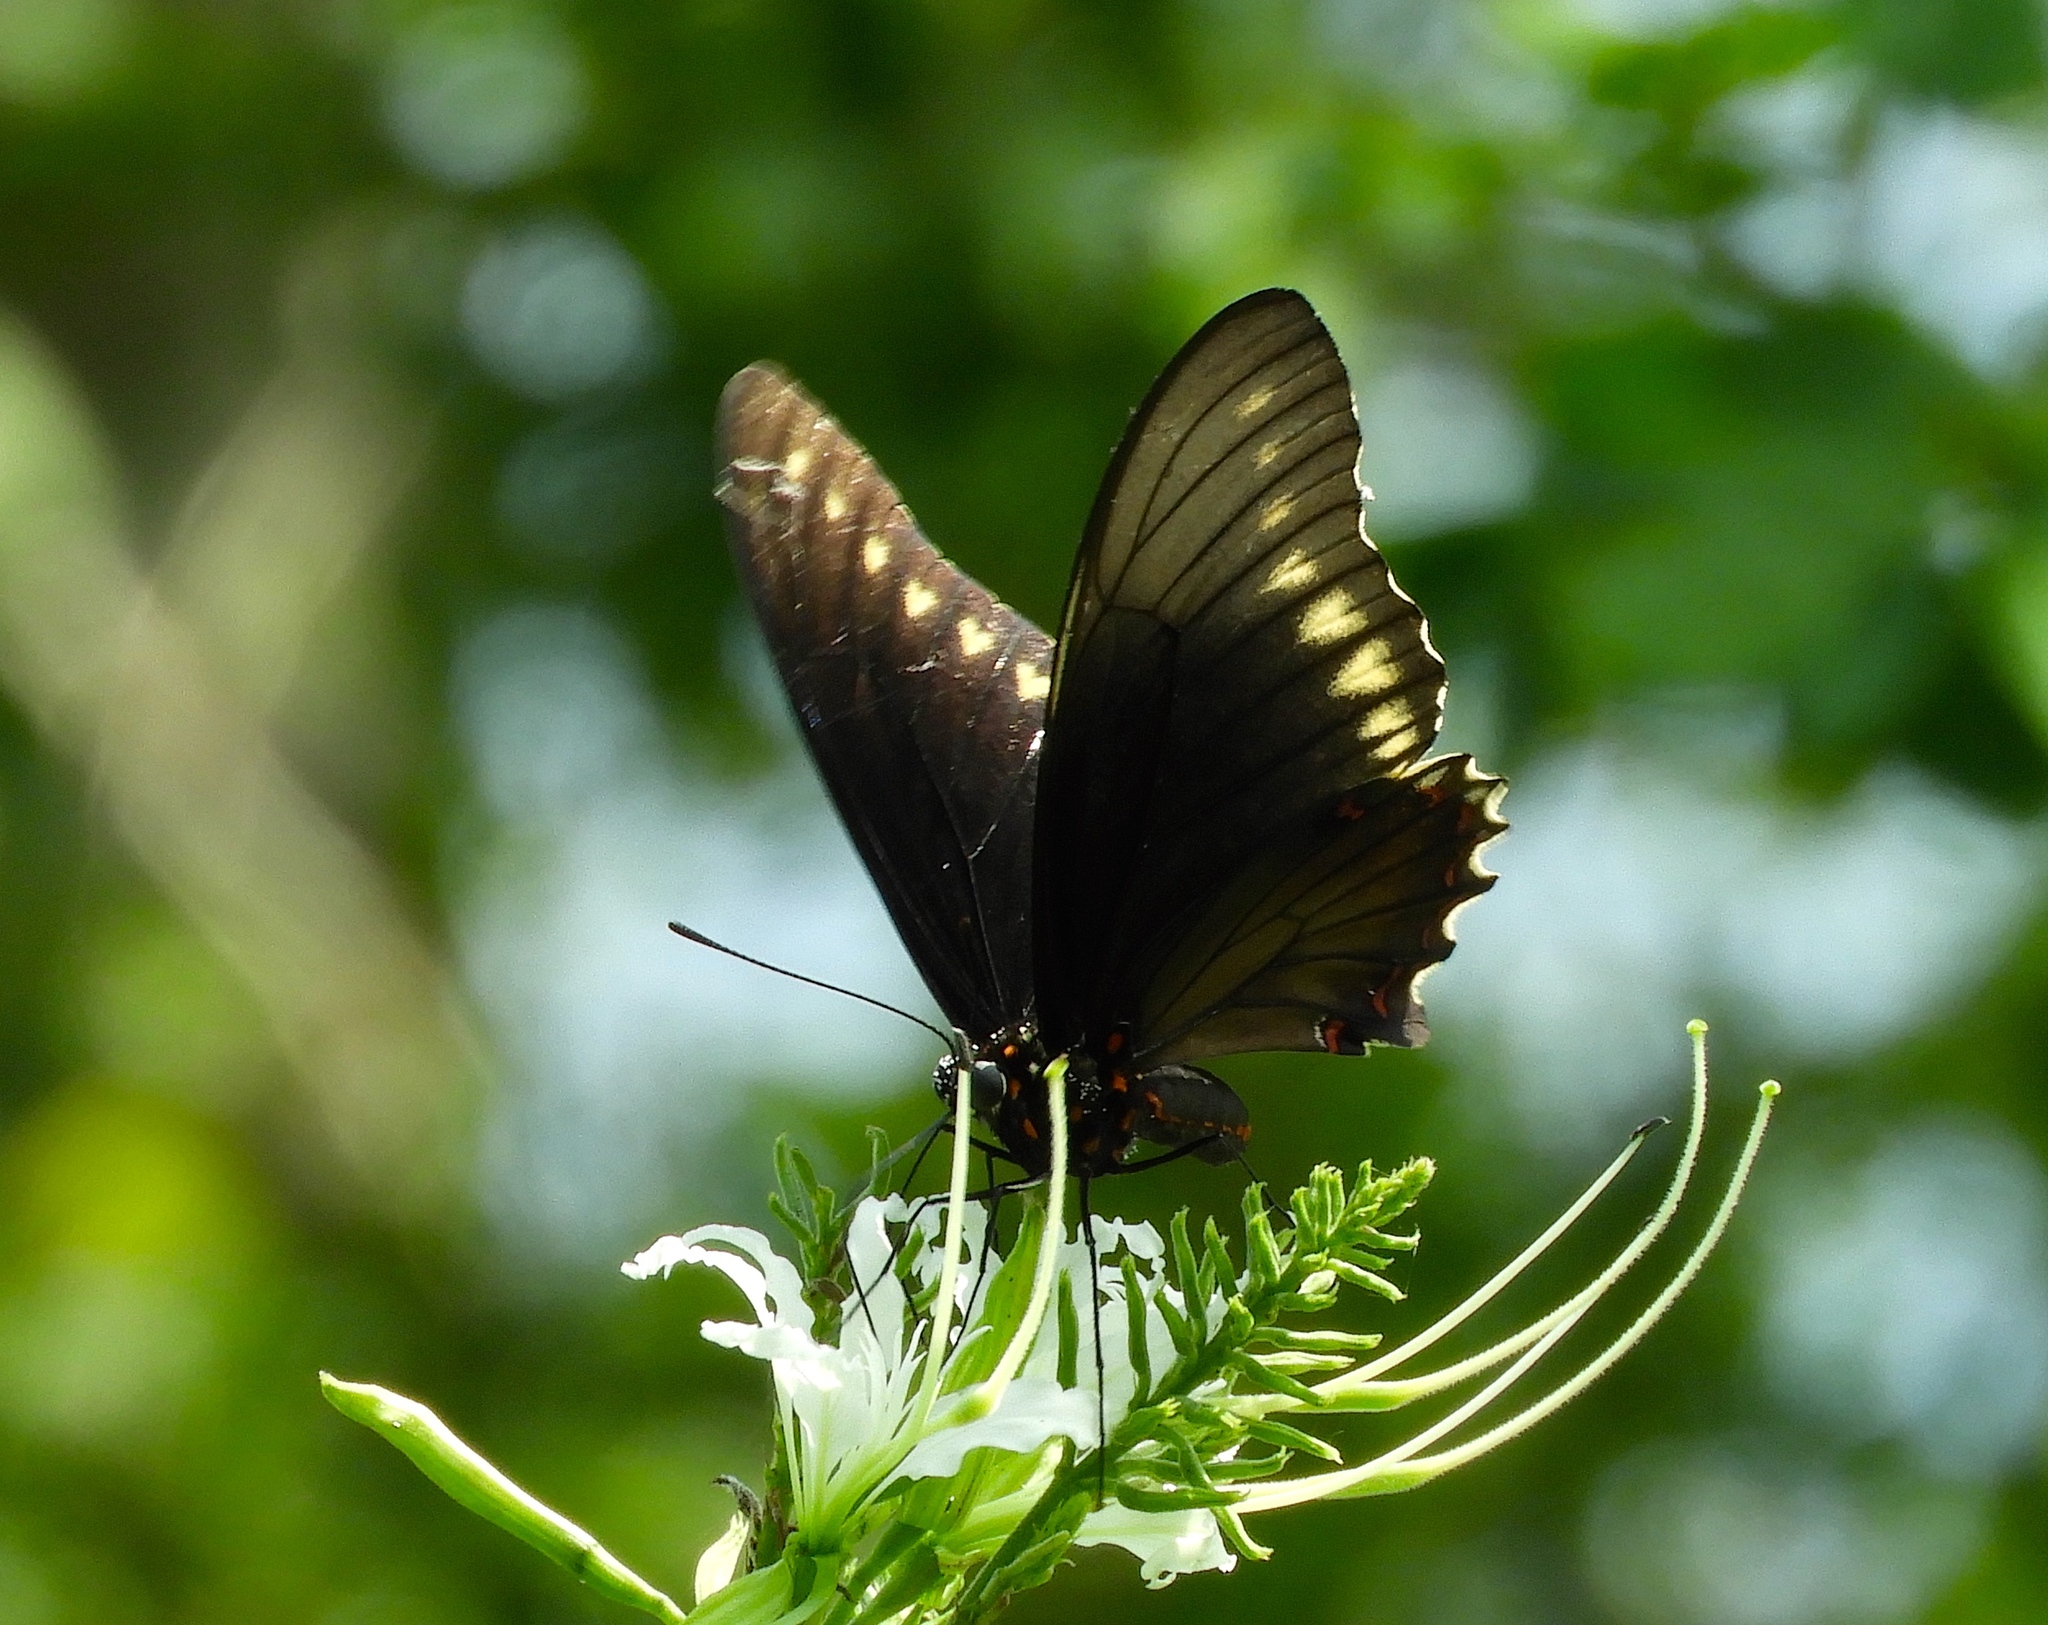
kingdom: Animalia
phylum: Arthropoda
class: Insecta
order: Lepidoptera
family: Papilionidae
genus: Battus
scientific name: Battus polydamas
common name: Polydamas swallowtail
